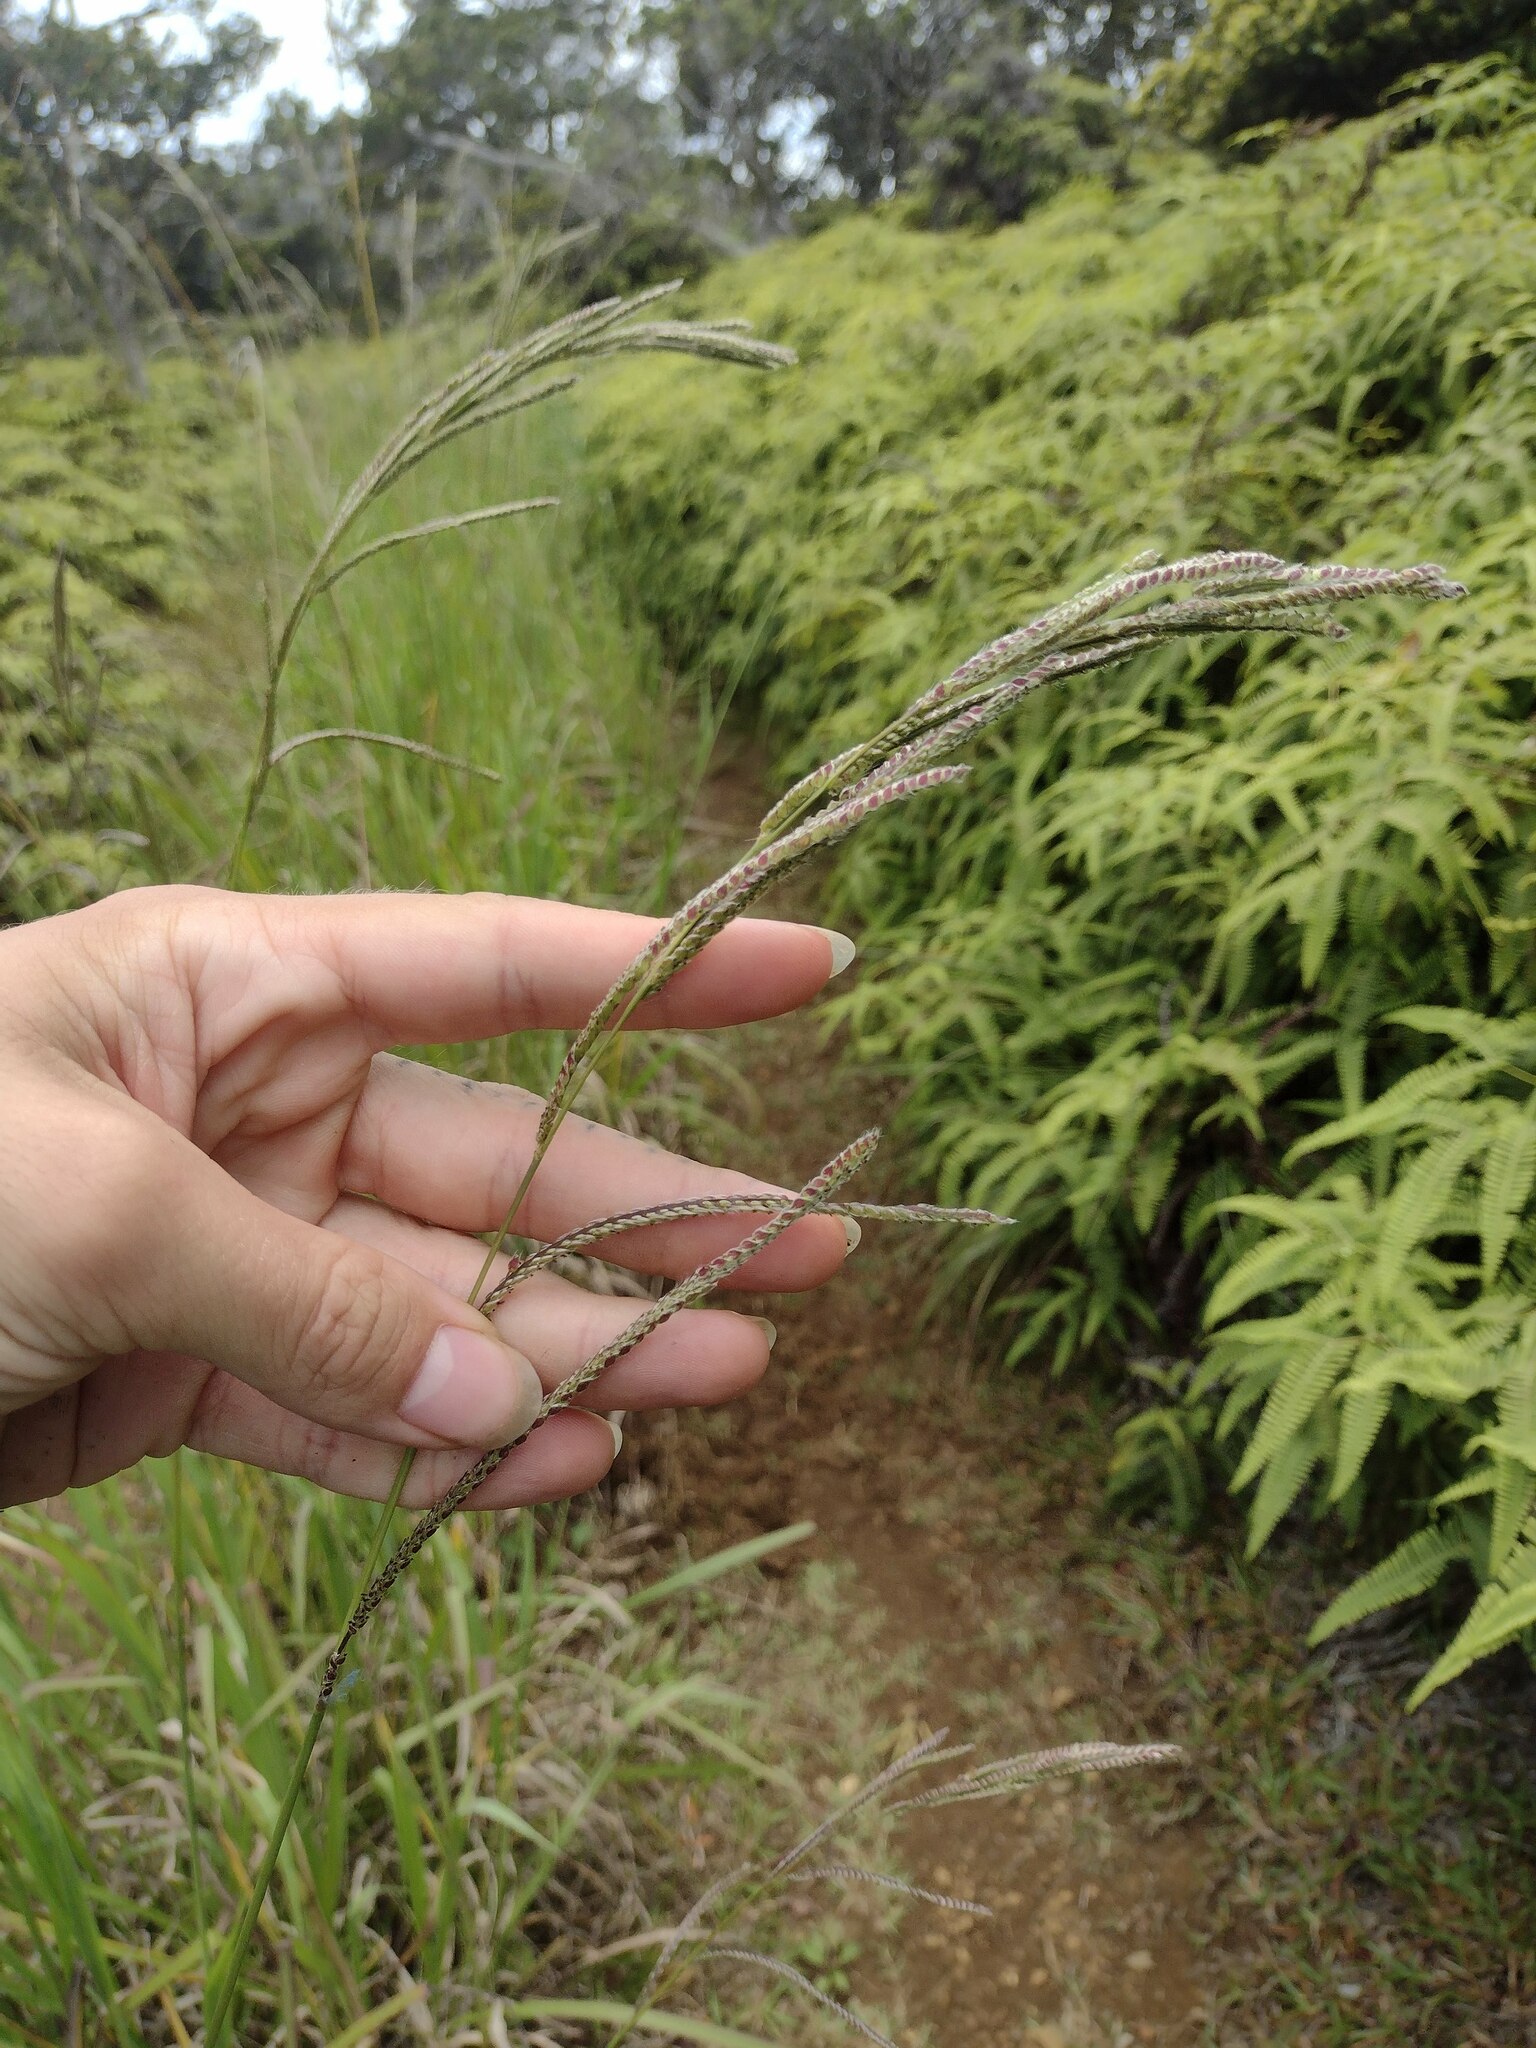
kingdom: Plantae
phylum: Tracheophyta
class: Liliopsida
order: Poales
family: Poaceae
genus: Paspalum
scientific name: Paspalum urvillei
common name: Vasey's grass
